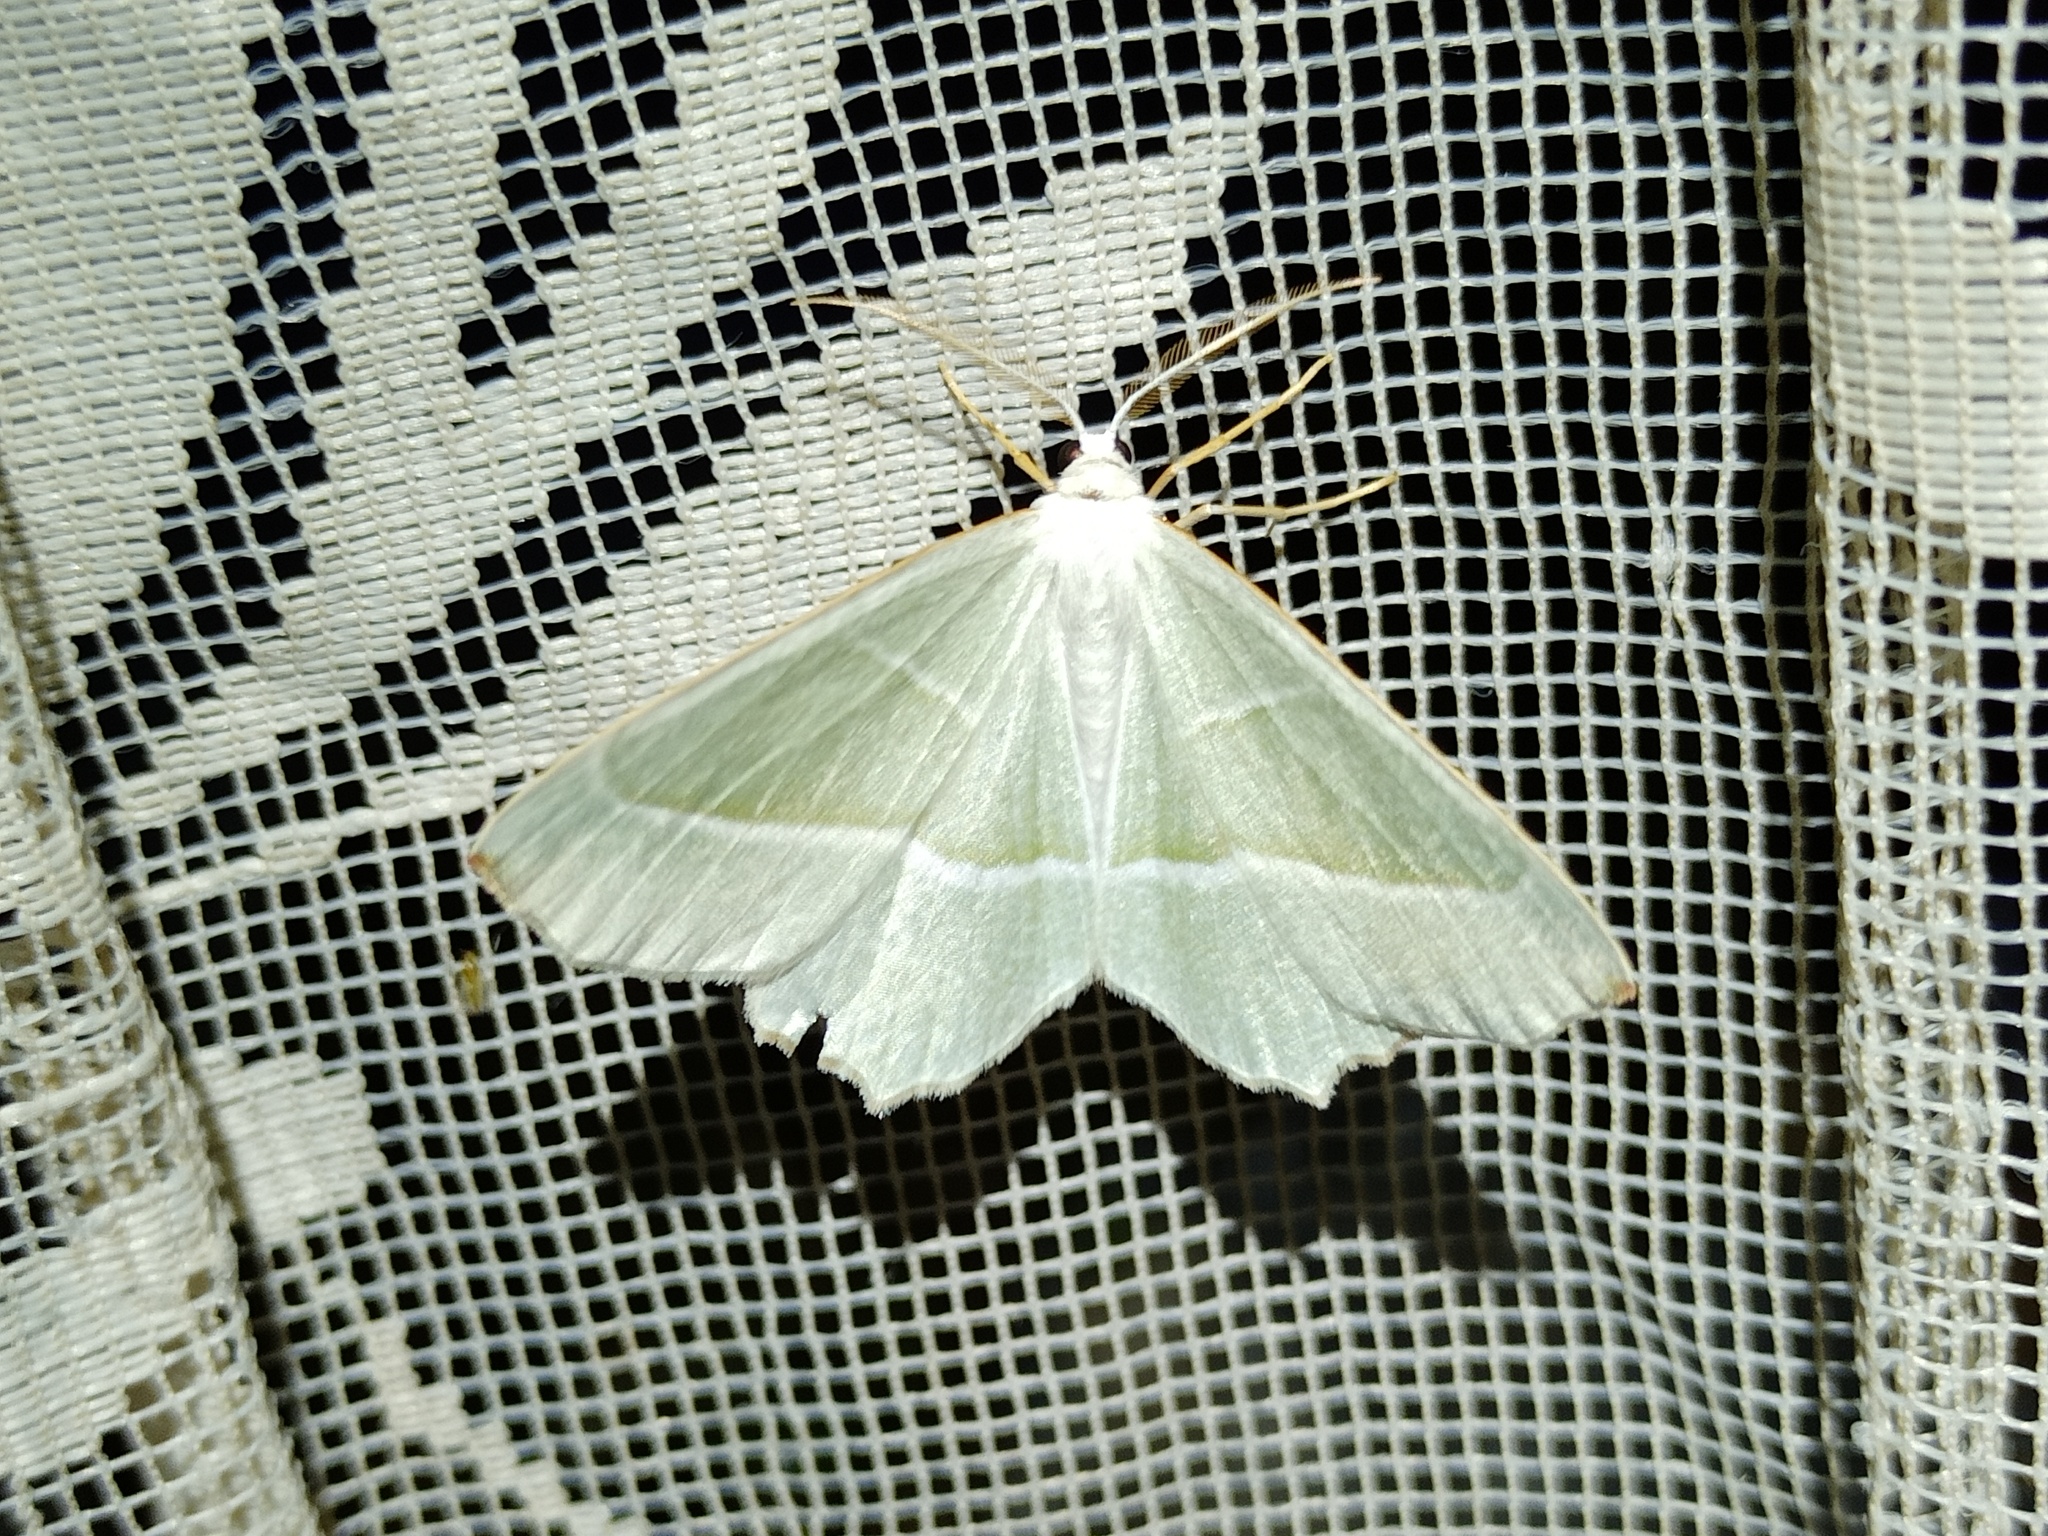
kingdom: Animalia
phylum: Arthropoda
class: Insecta
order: Lepidoptera
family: Geometridae
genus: Campaea
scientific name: Campaea margaritaria
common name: Light emerald
